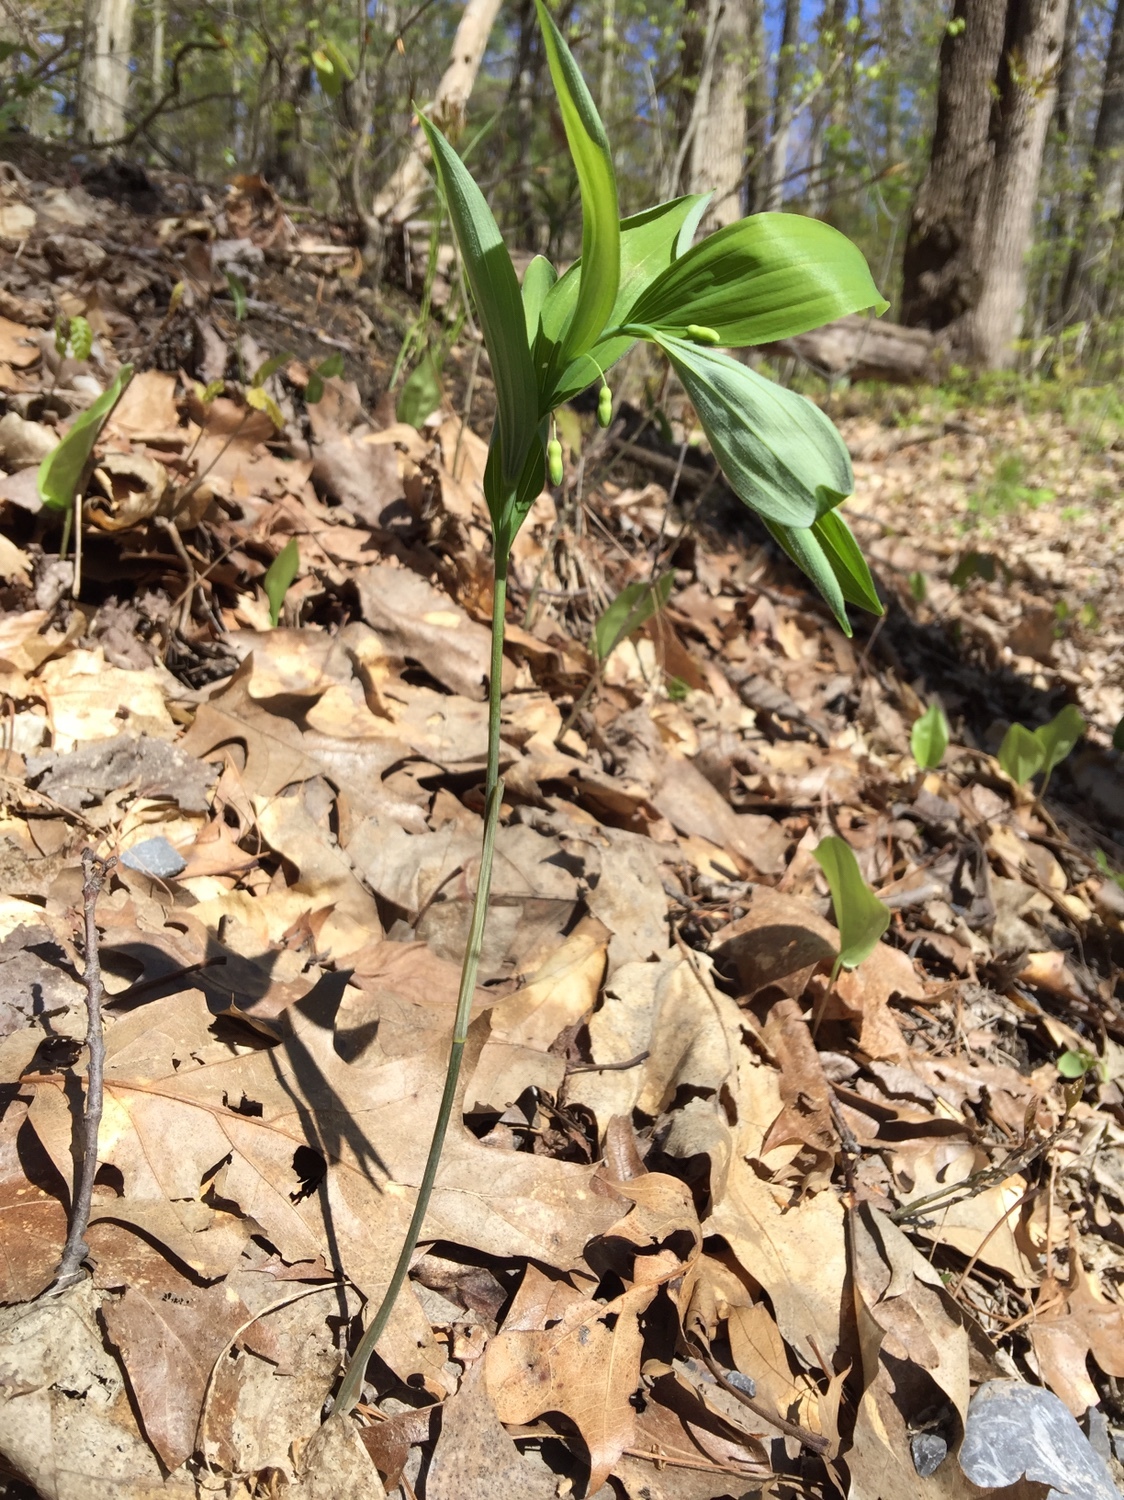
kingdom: Plantae
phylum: Tracheophyta
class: Liliopsida
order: Asparagales
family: Asparagaceae
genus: Polygonatum
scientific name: Polygonatum pubescens
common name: Downy solomon's seal
